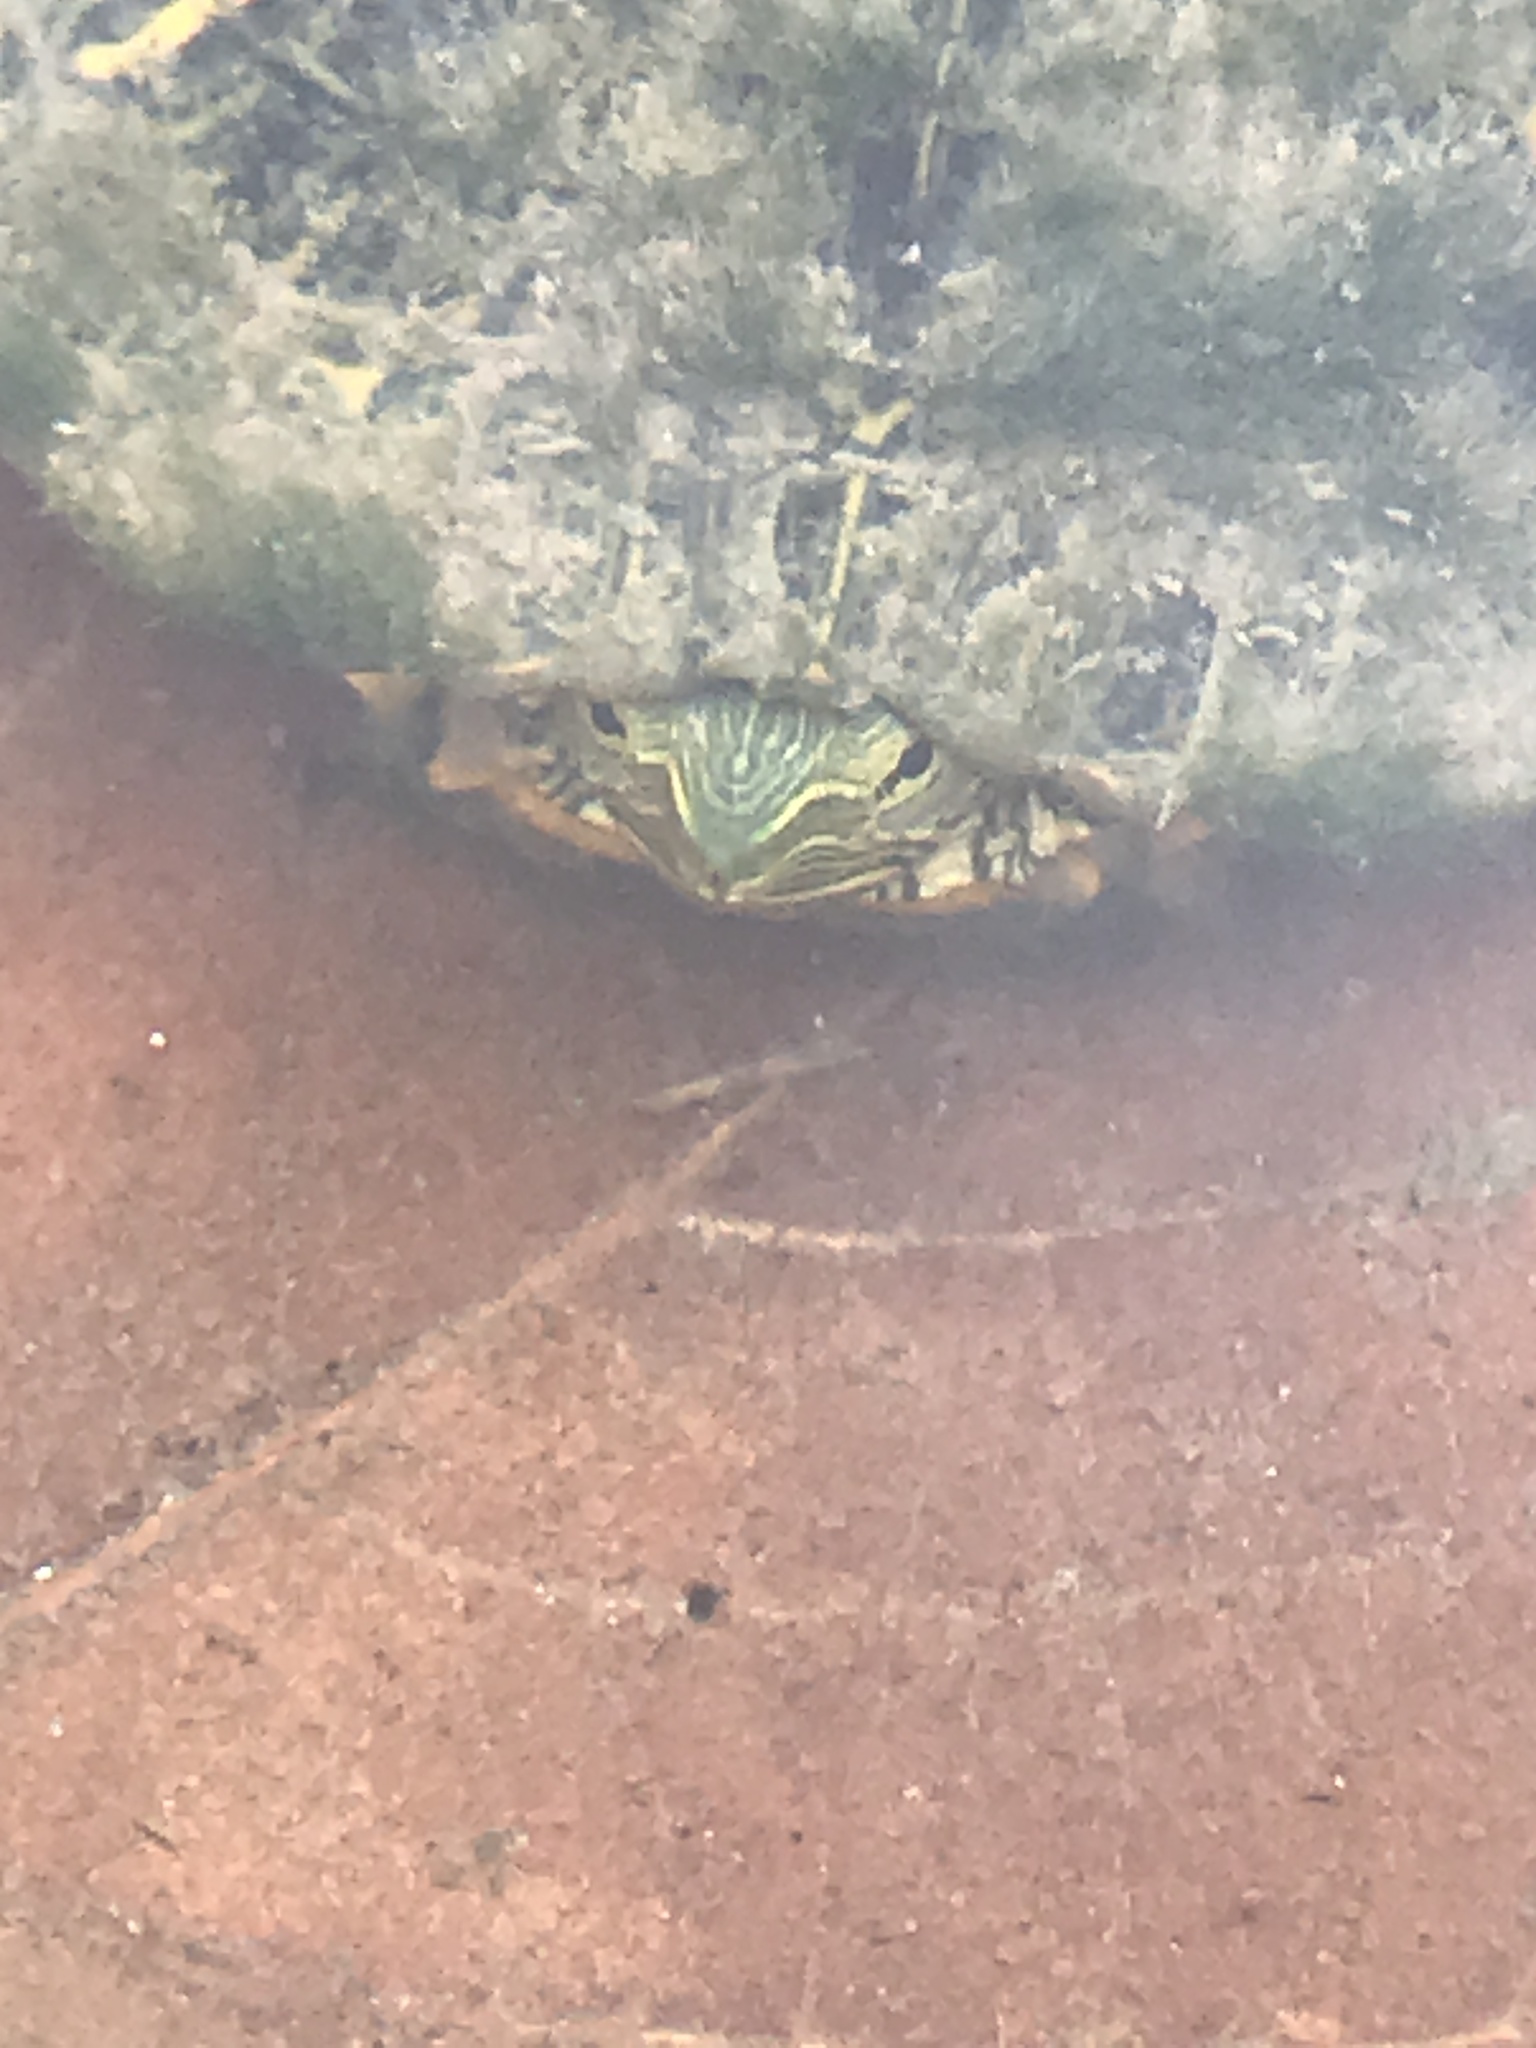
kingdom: Animalia
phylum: Chordata
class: Testudines
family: Emydidae
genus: Trachemys
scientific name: Trachemys scripta
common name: Slider
